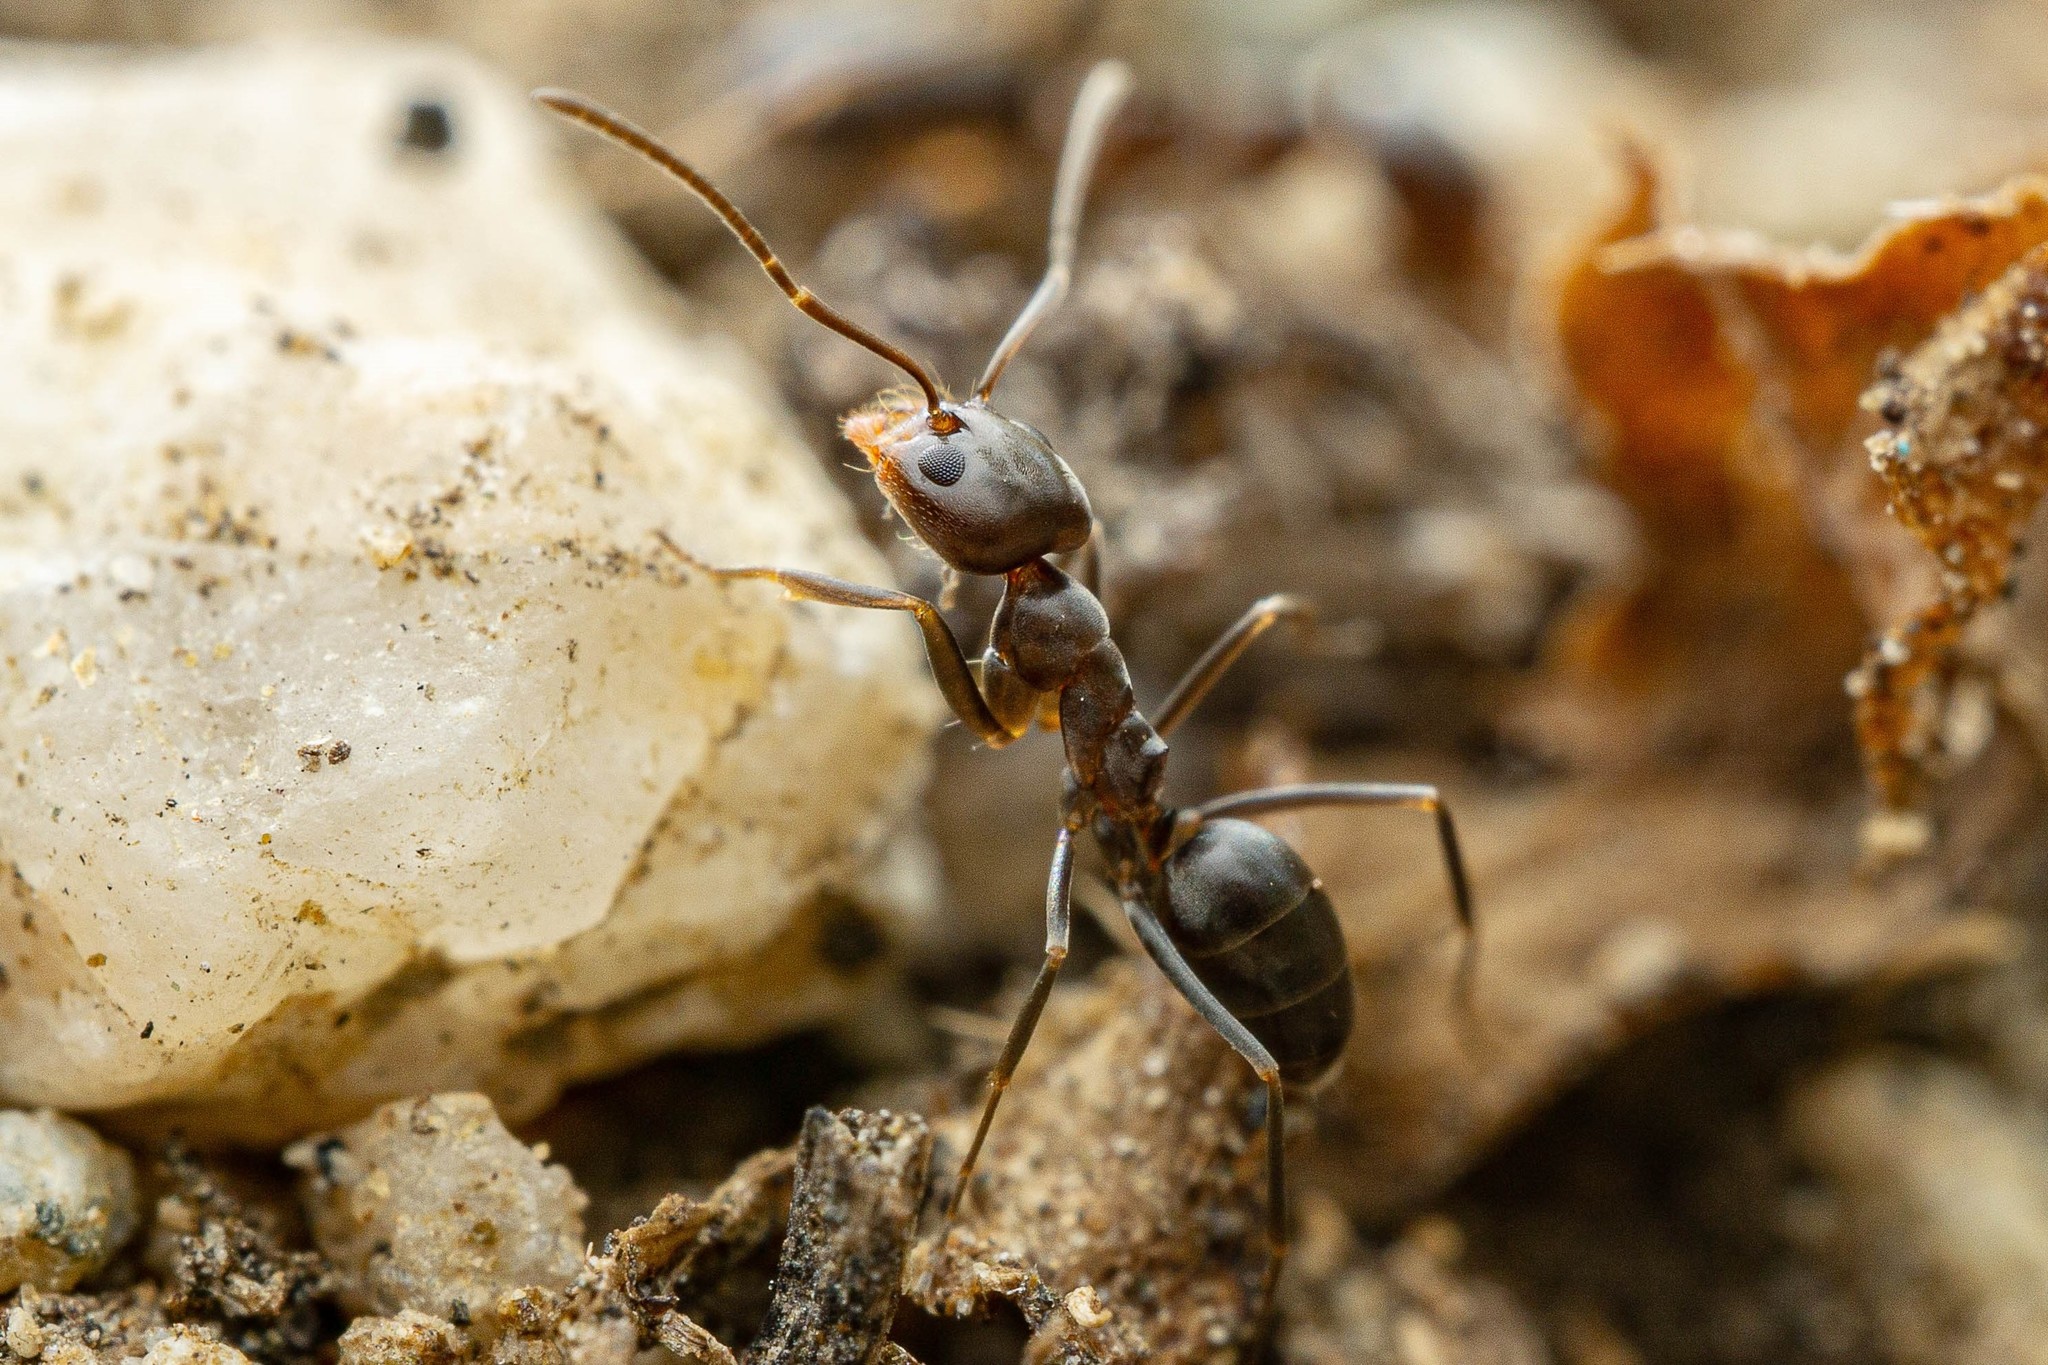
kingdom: Animalia
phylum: Arthropoda
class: Insecta
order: Hymenoptera
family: Formicidae
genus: Dorymyrmex
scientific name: Dorymyrmex insanus
